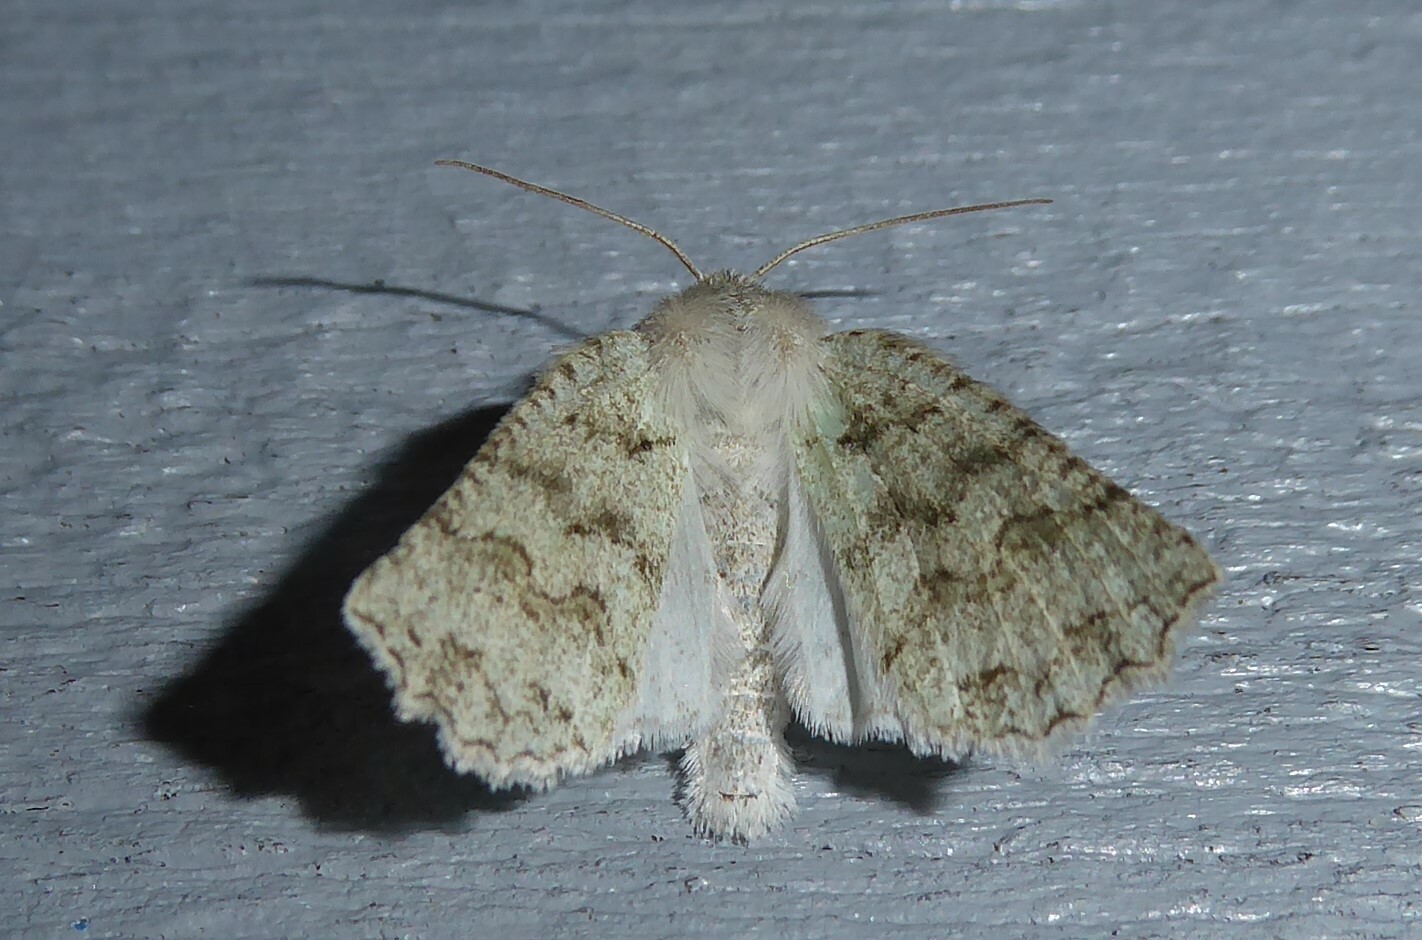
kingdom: Animalia
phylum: Arthropoda
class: Insecta
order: Lepidoptera
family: Geometridae
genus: Declana
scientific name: Declana niveata
